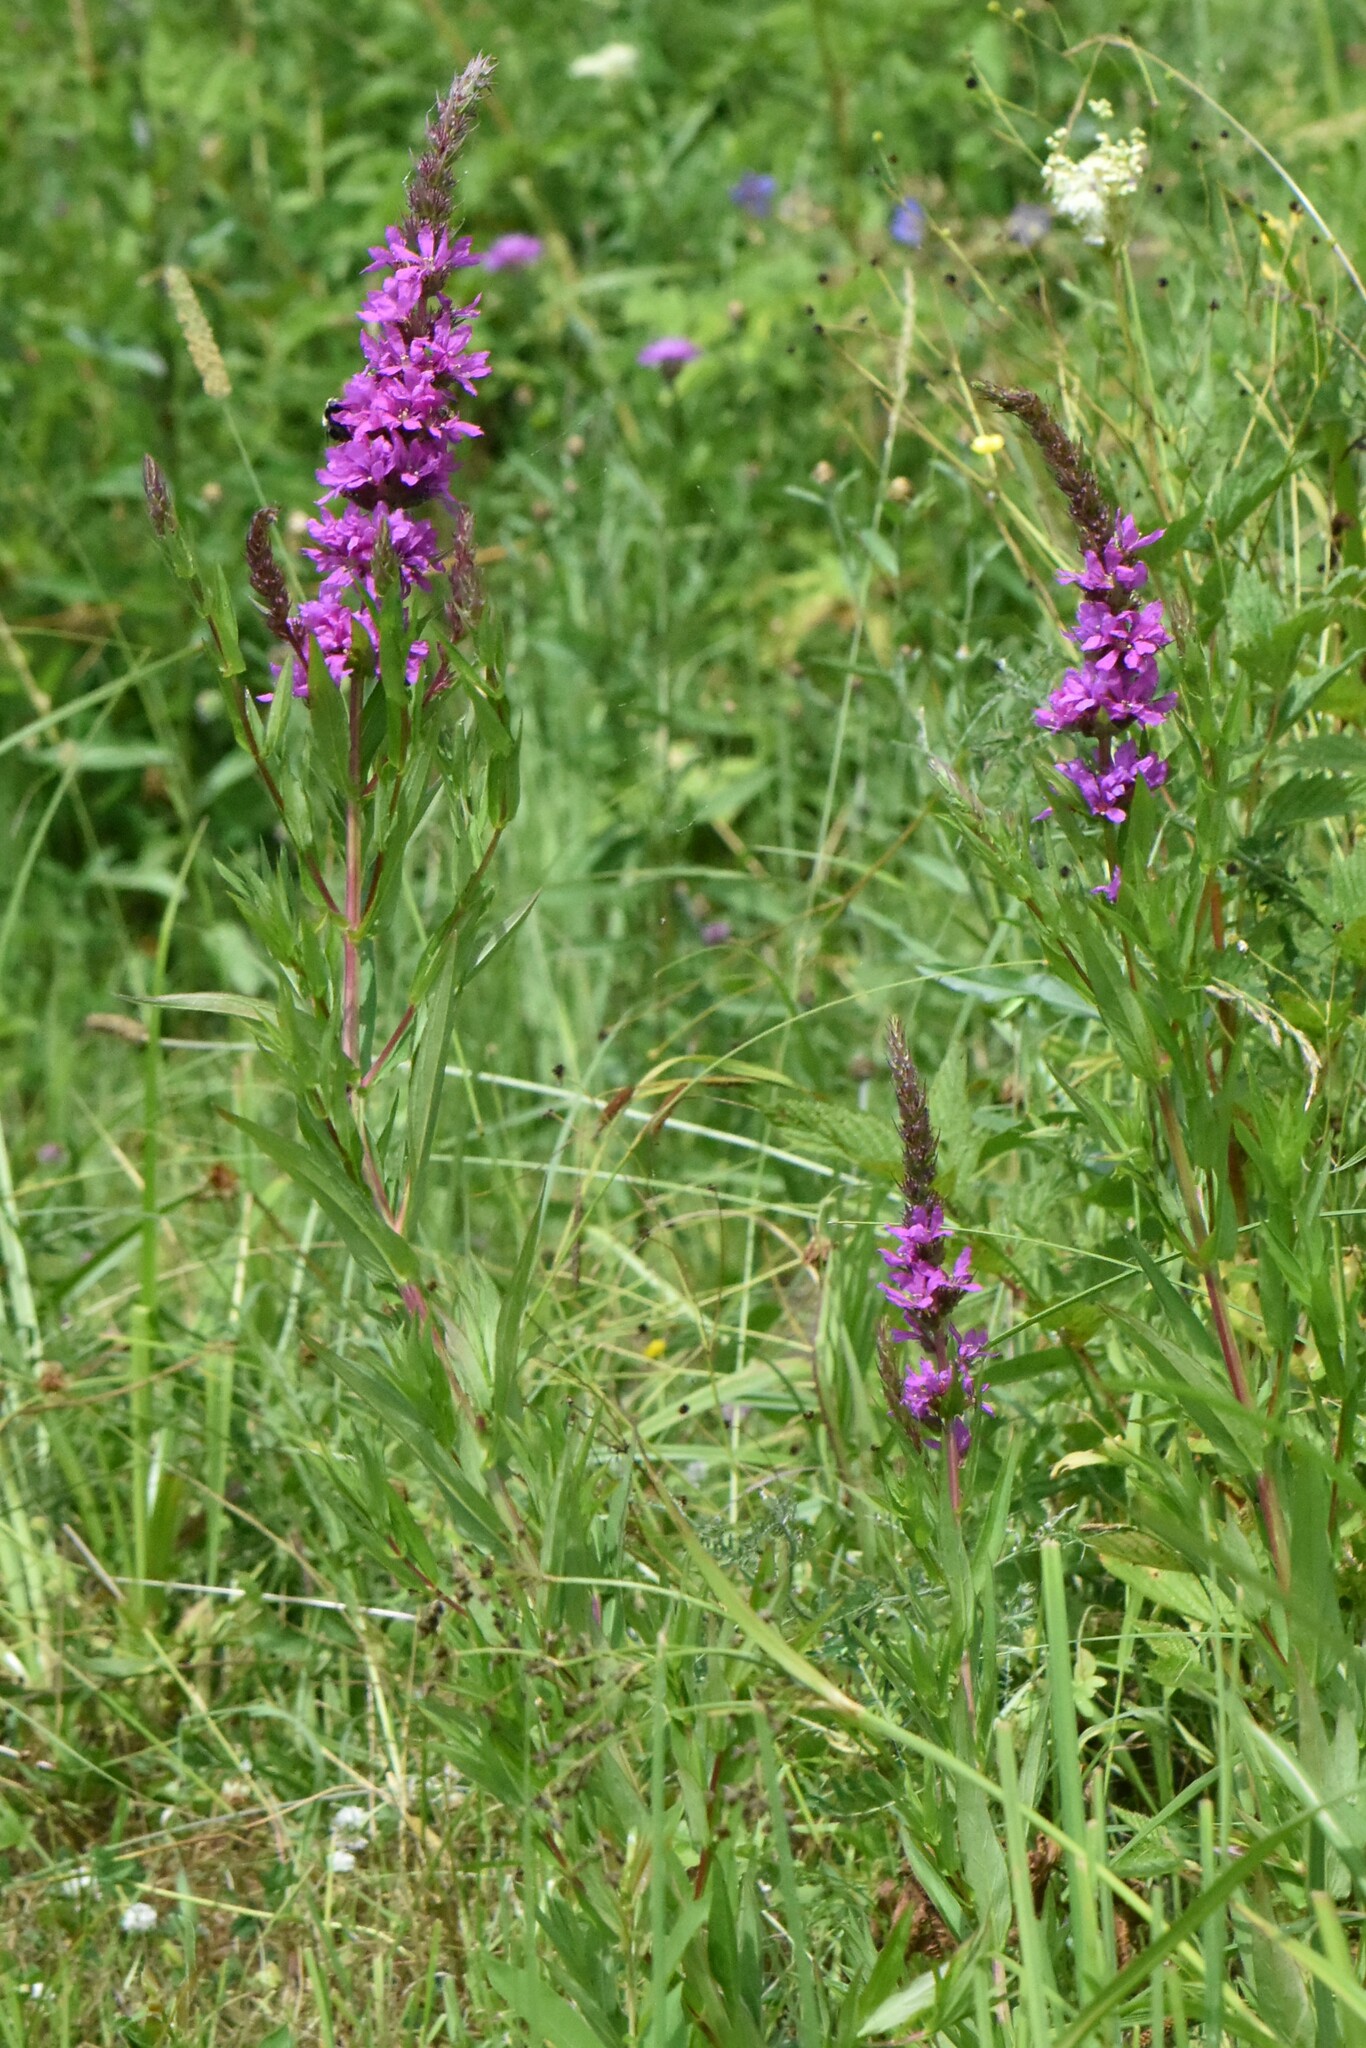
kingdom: Plantae
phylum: Tracheophyta
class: Magnoliopsida
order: Myrtales
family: Lythraceae
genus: Lythrum
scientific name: Lythrum salicaria
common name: Purple loosestrife
